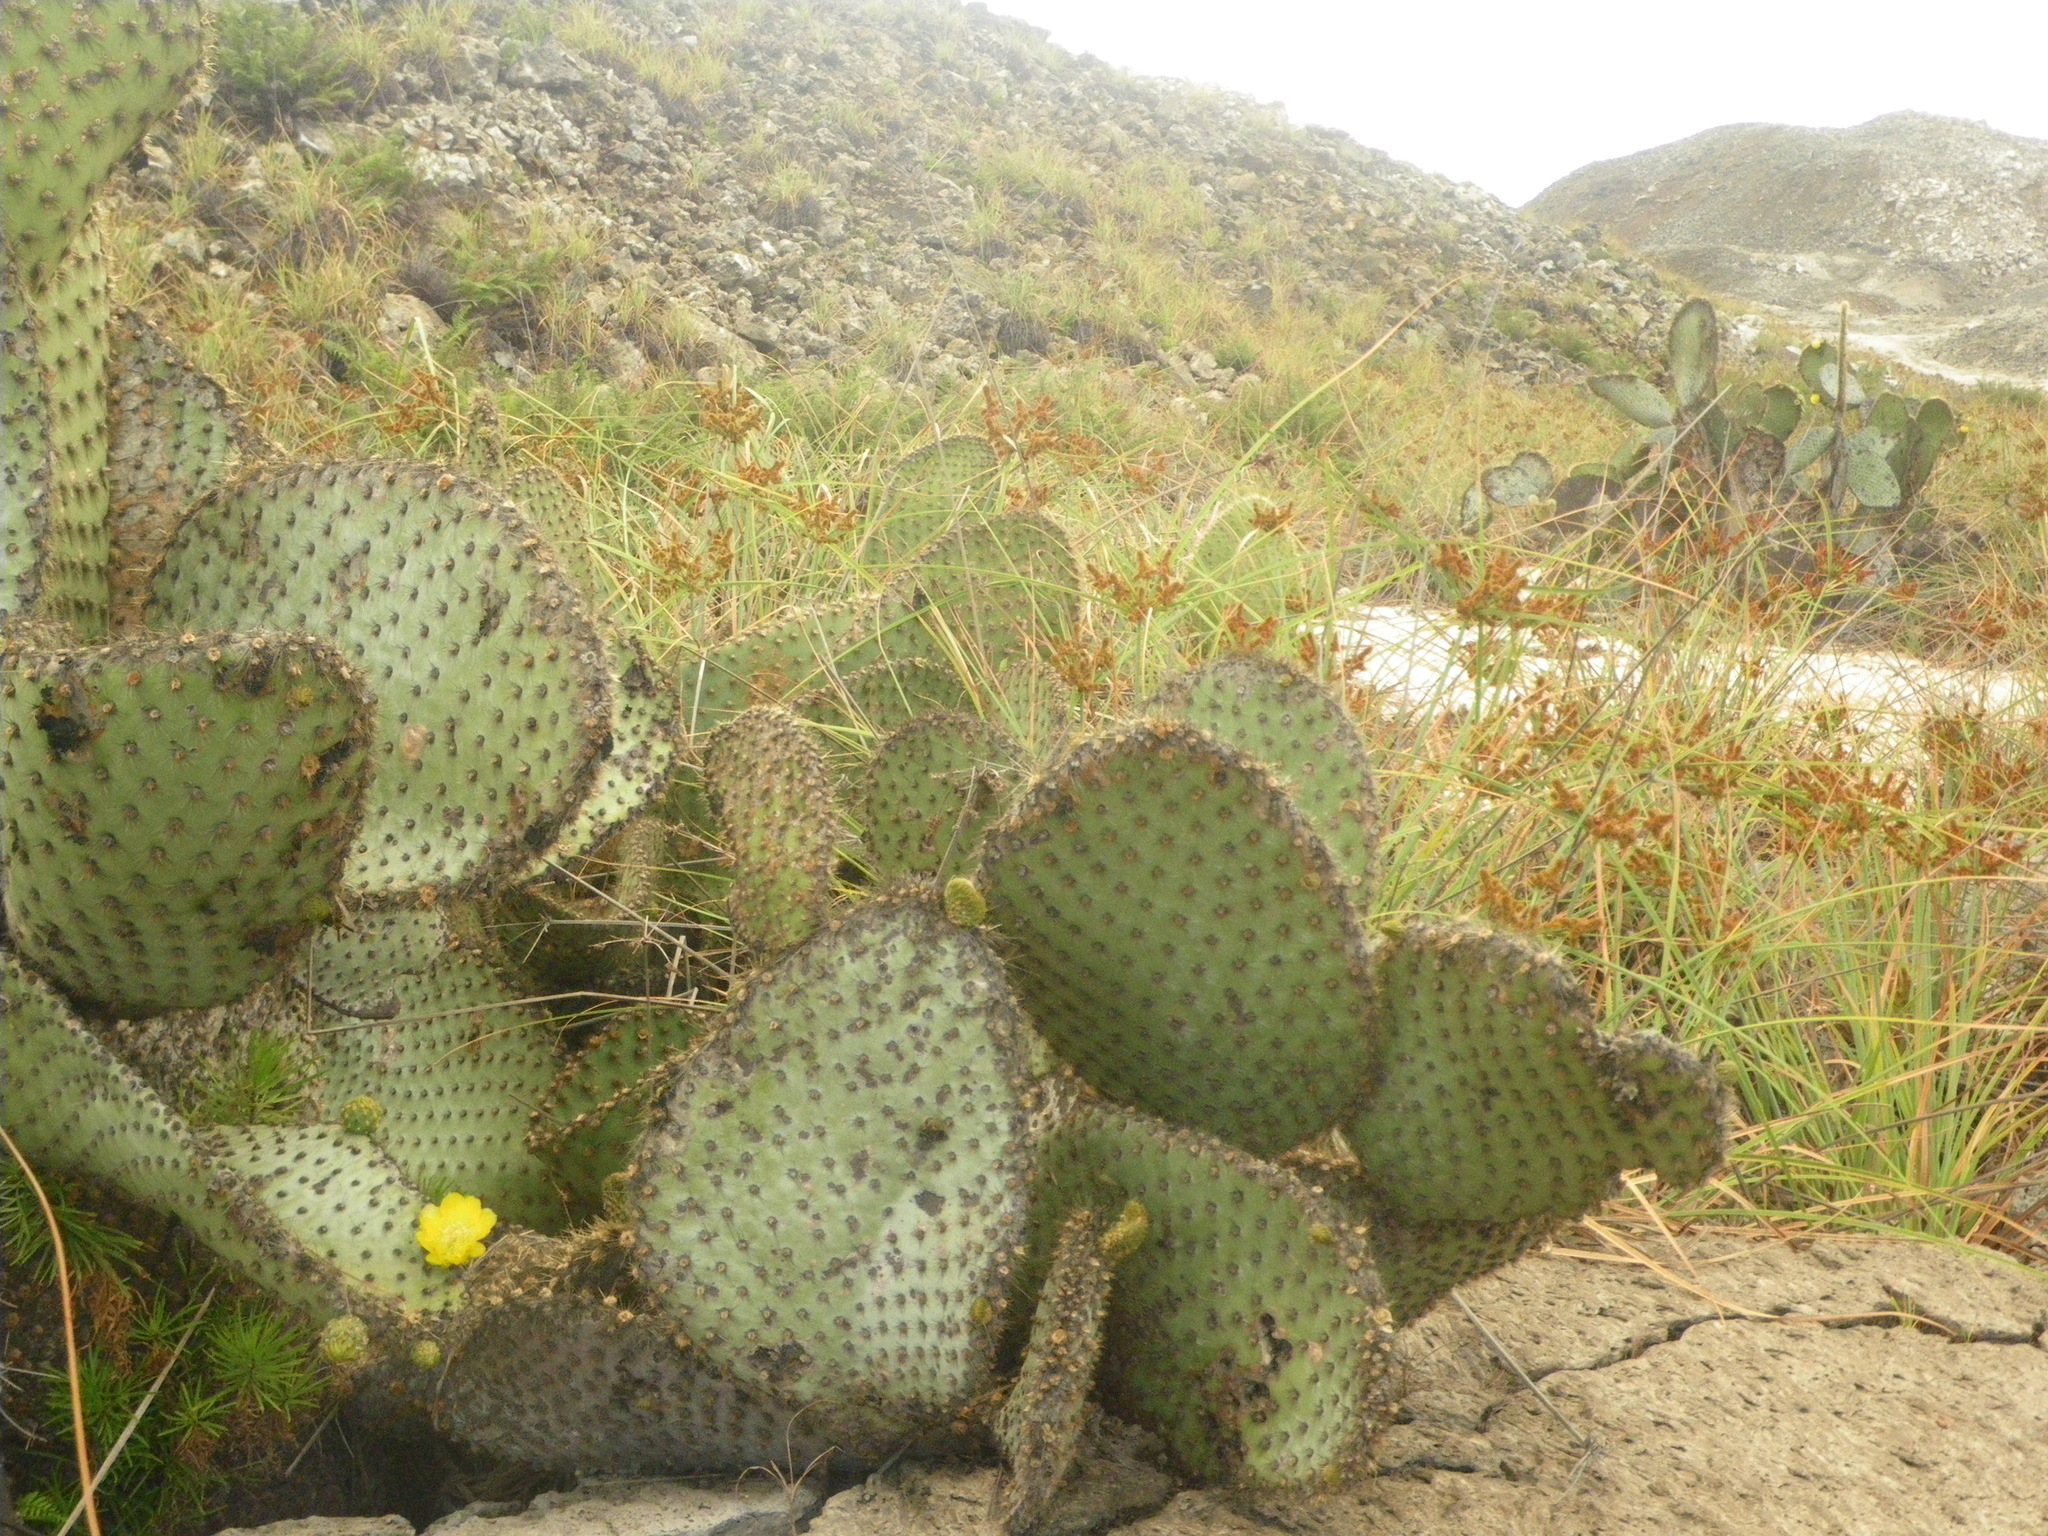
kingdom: Plantae
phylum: Tracheophyta
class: Magnoliopsida
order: Caryophyllales
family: Cactaceae
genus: Opuntia
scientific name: Opuntia galapageia
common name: Galápagos prickly pear
